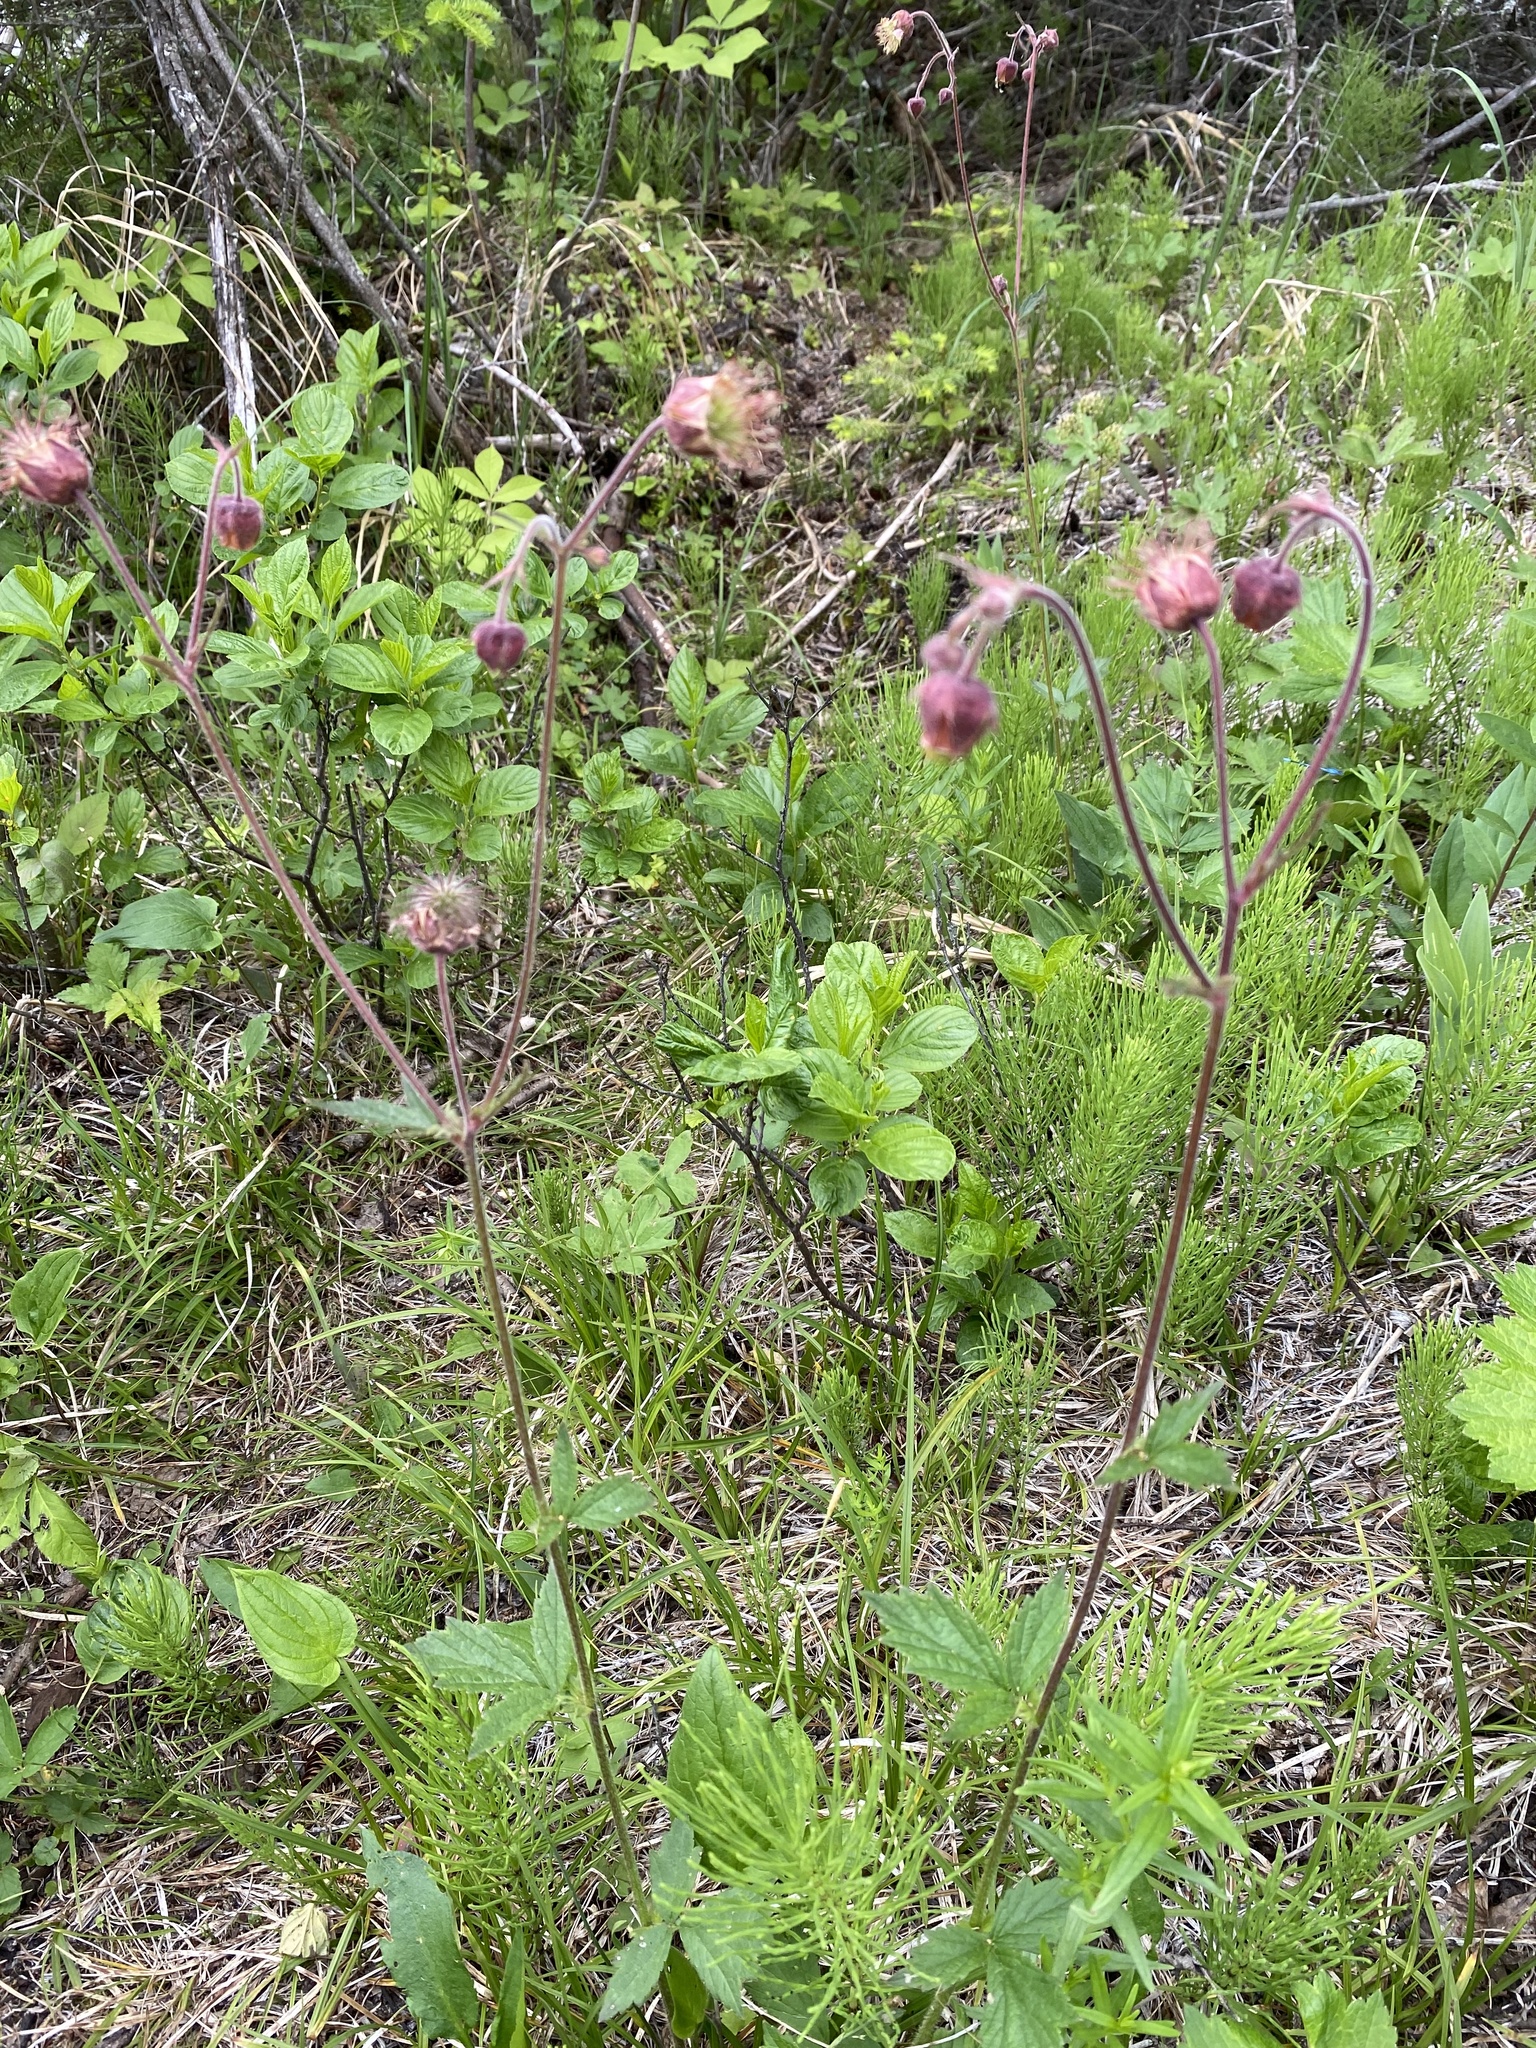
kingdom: Plantae
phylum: Tracheophyta
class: Magnoliopsida
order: Rosales
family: Rosaceae
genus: Geum
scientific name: Geum rivale
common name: Water avens
